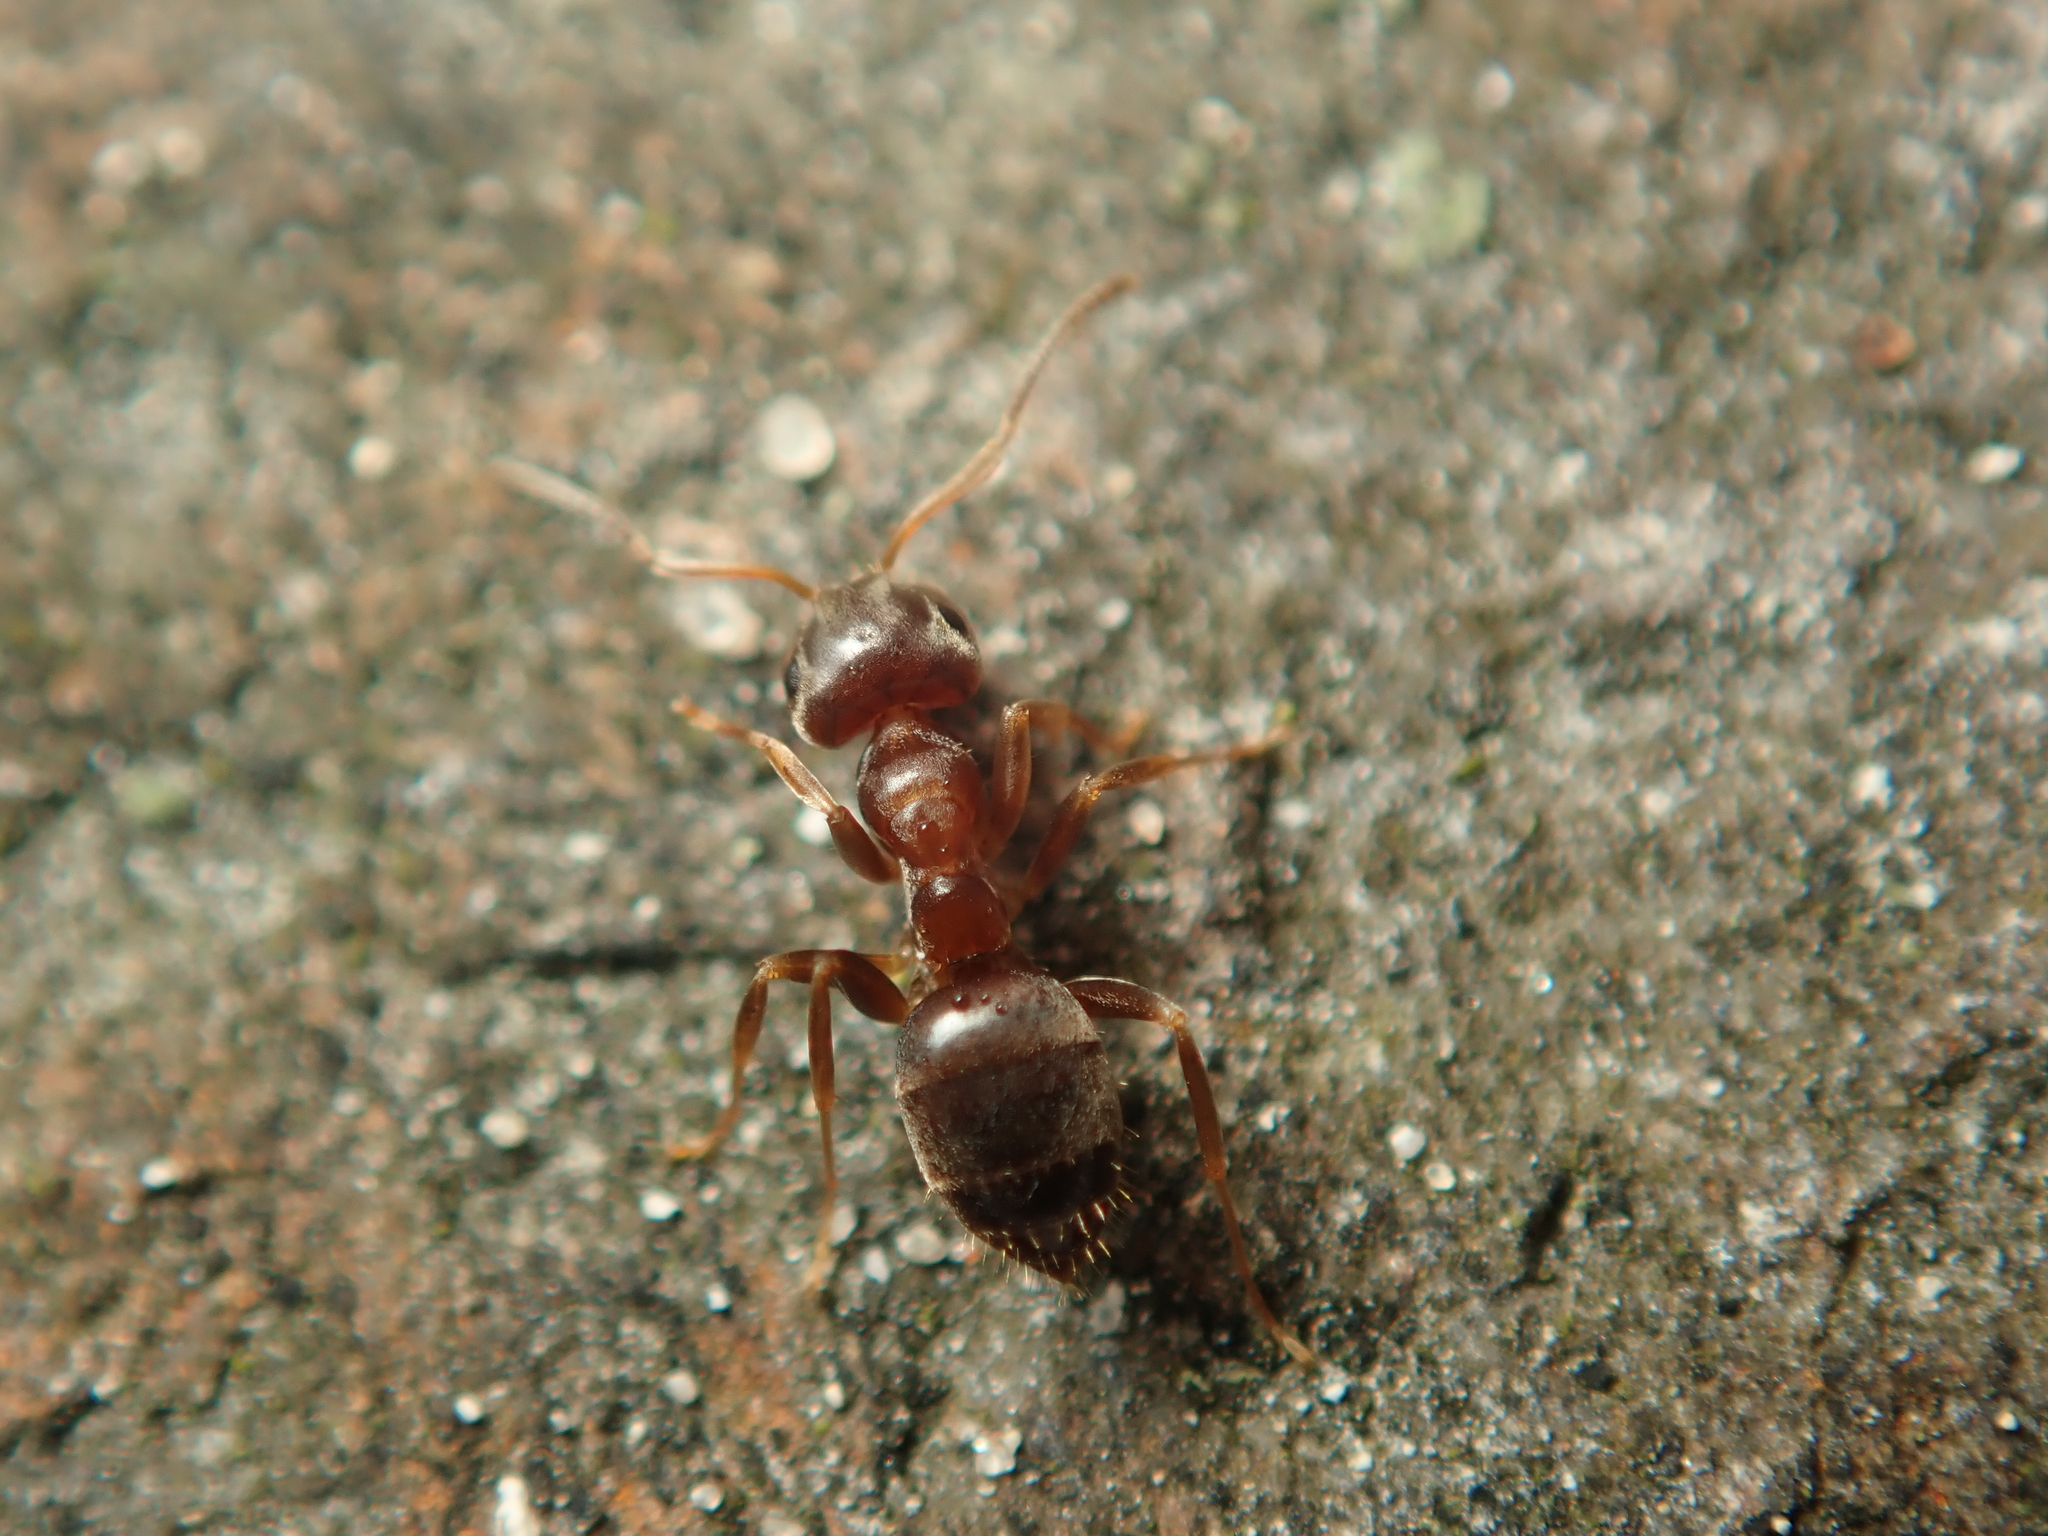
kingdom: Animalia
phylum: Arthropoda
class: Insecta
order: Hymenoptera
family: Formicidae
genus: Lasius
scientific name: Lasius brunneus
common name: Brown ant
